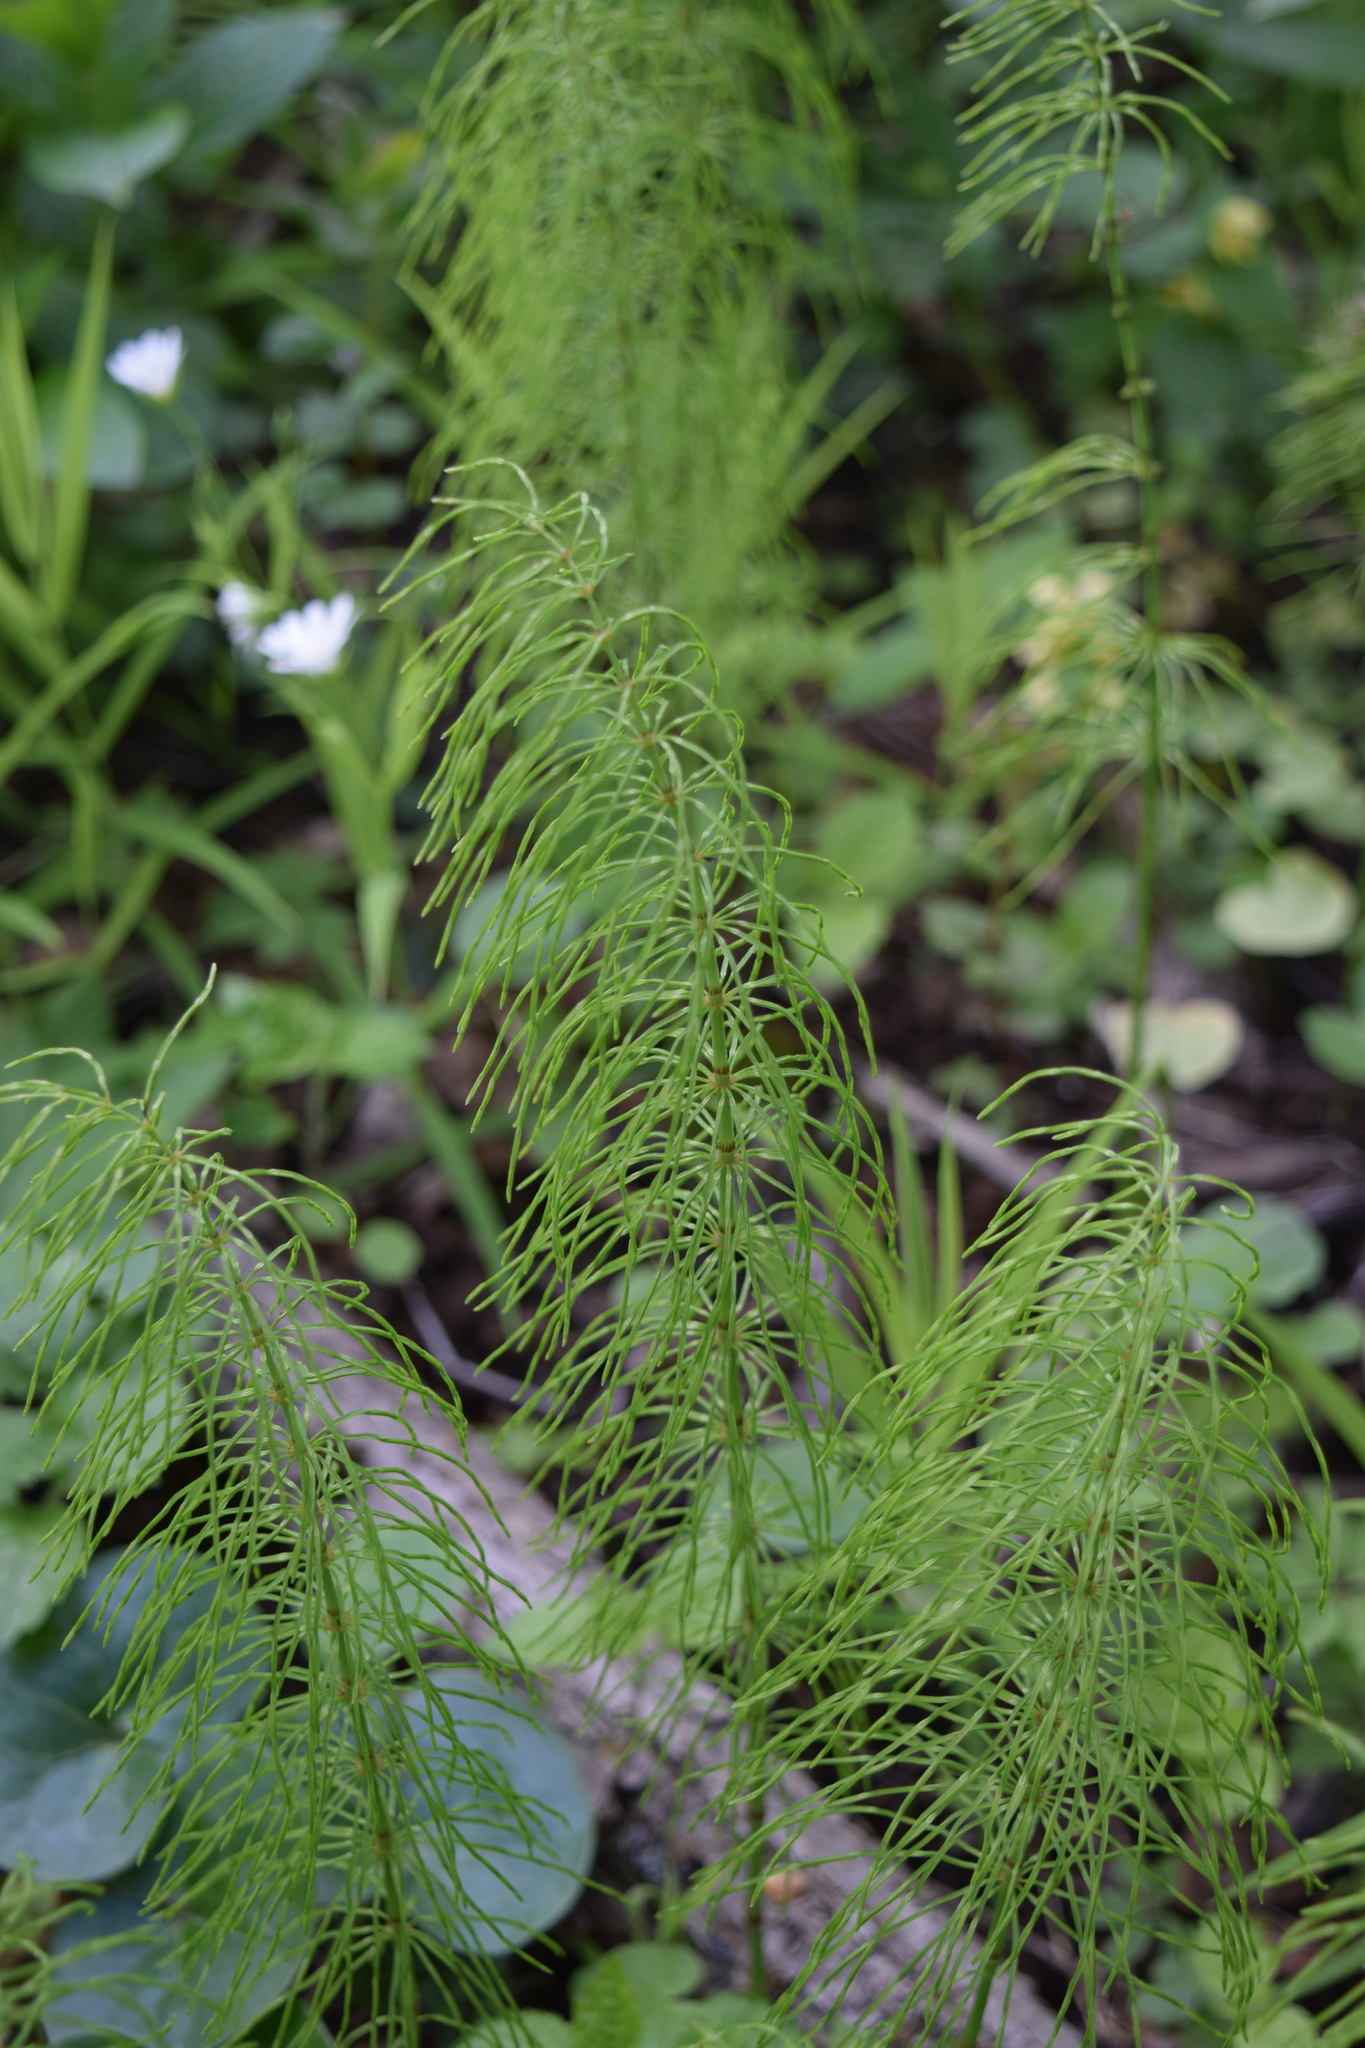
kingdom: Plantae
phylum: Tracheophyta
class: Polypodiopsida
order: Equisetales
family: Equisetaceae
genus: Equisetum
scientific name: Equisetum pratense
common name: Meadow horsetail
